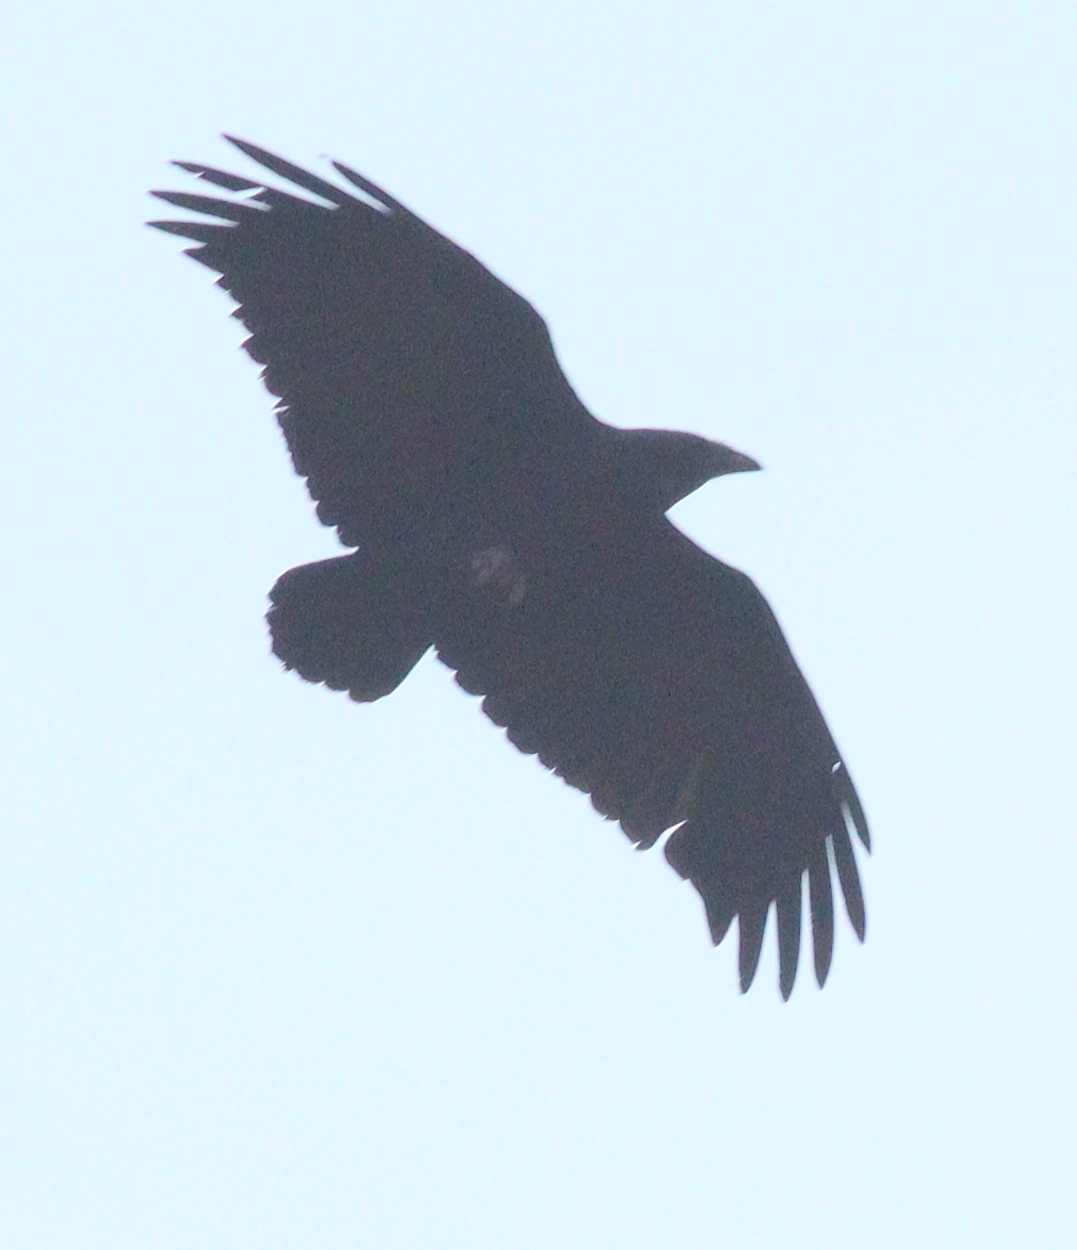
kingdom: Animalia
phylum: Chordata
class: Aves
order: Passeriformes
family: Corvidae
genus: Corvus
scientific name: Corvus rhipidurus
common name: Fan-tailed raven
